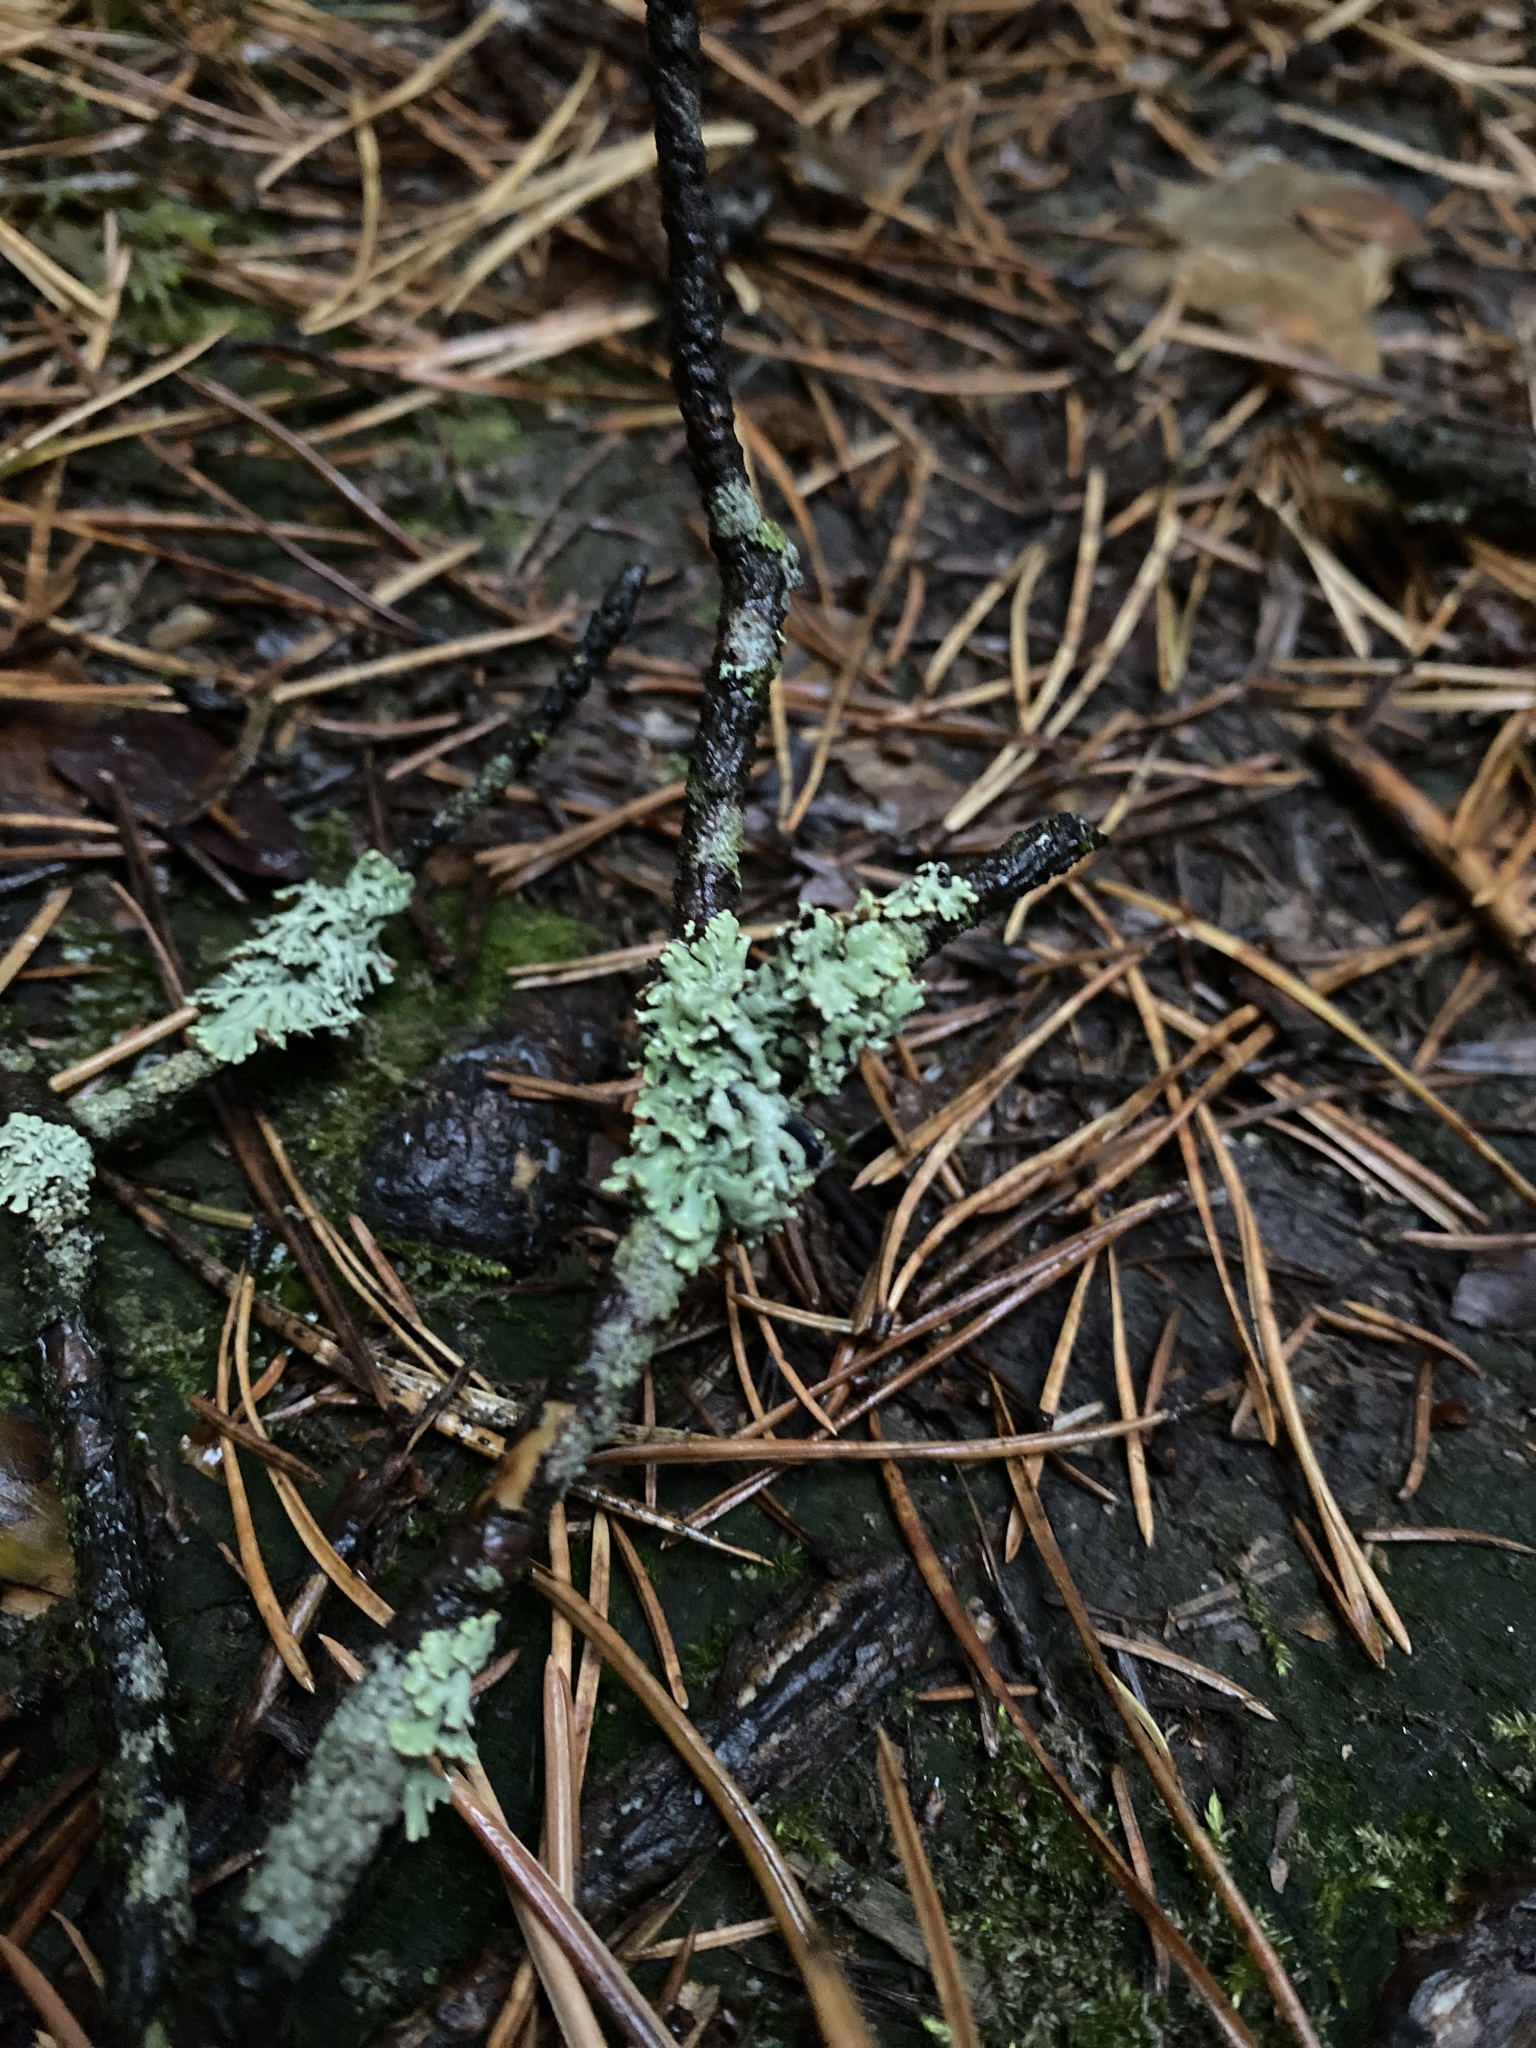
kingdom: Fungi
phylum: Ascomycota
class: Lecanoromycetes
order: Lecanorales
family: Parmeliaceae
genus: Hypogymnia
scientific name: Hypogymnia physodes
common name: Dark crottle
